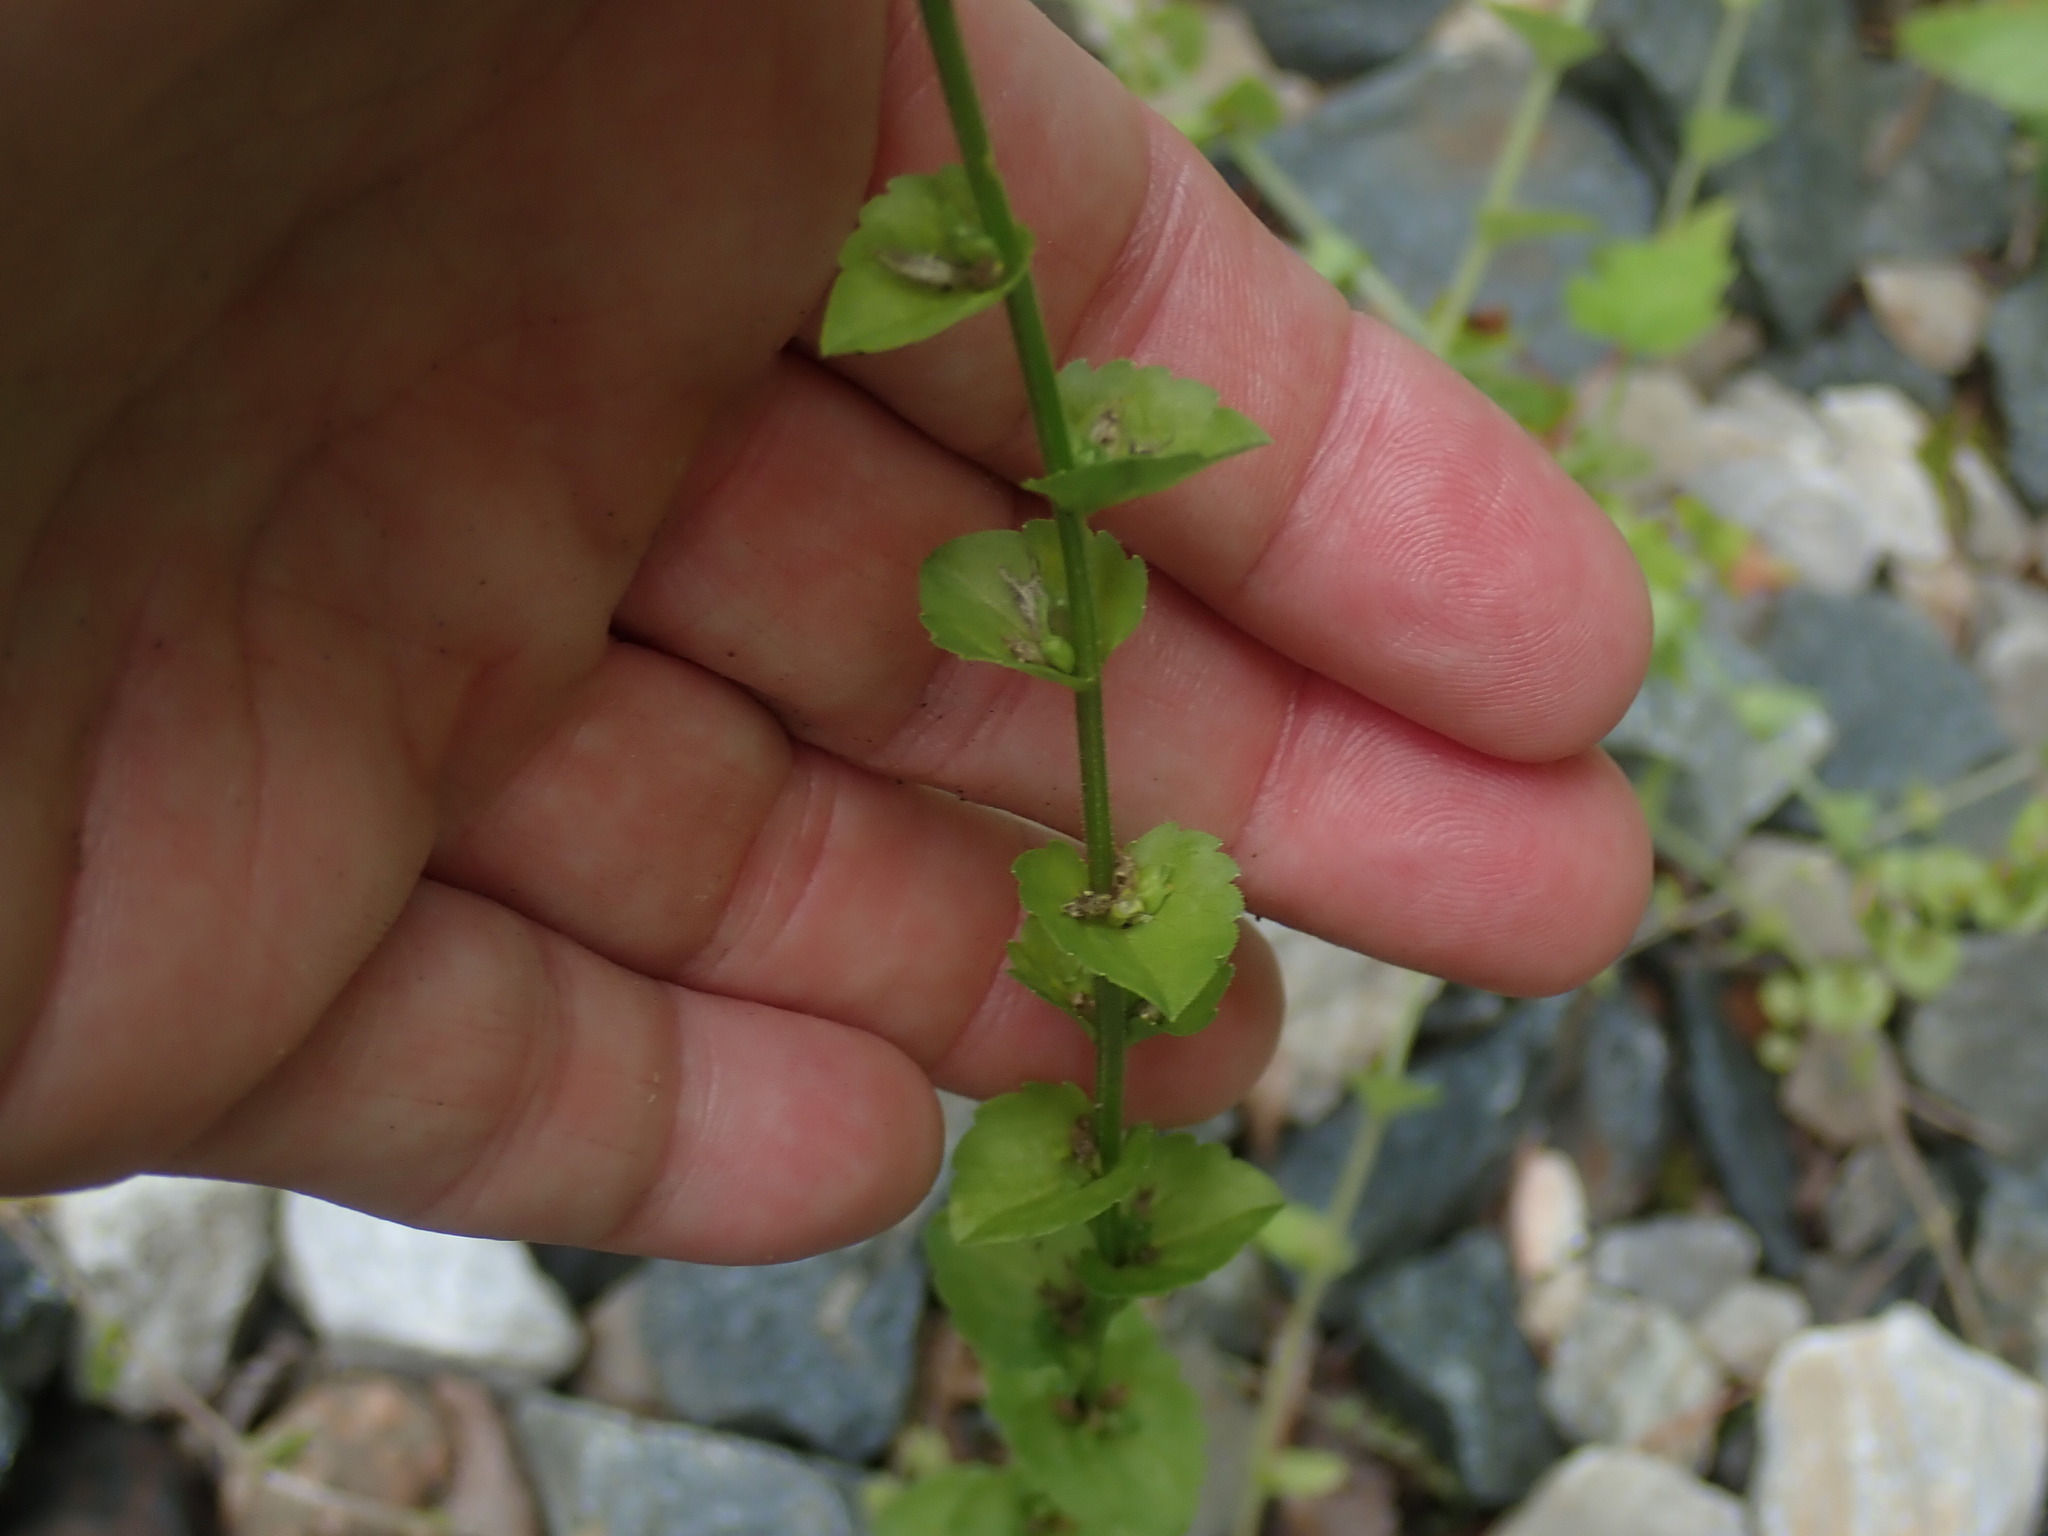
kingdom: Plantae
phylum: Tracheophyta
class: Magnoliopsida
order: Asterales
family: Campanulaceae
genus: Triodanis
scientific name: Triodanis perfoliata
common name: Clasping venus' looking-glass
